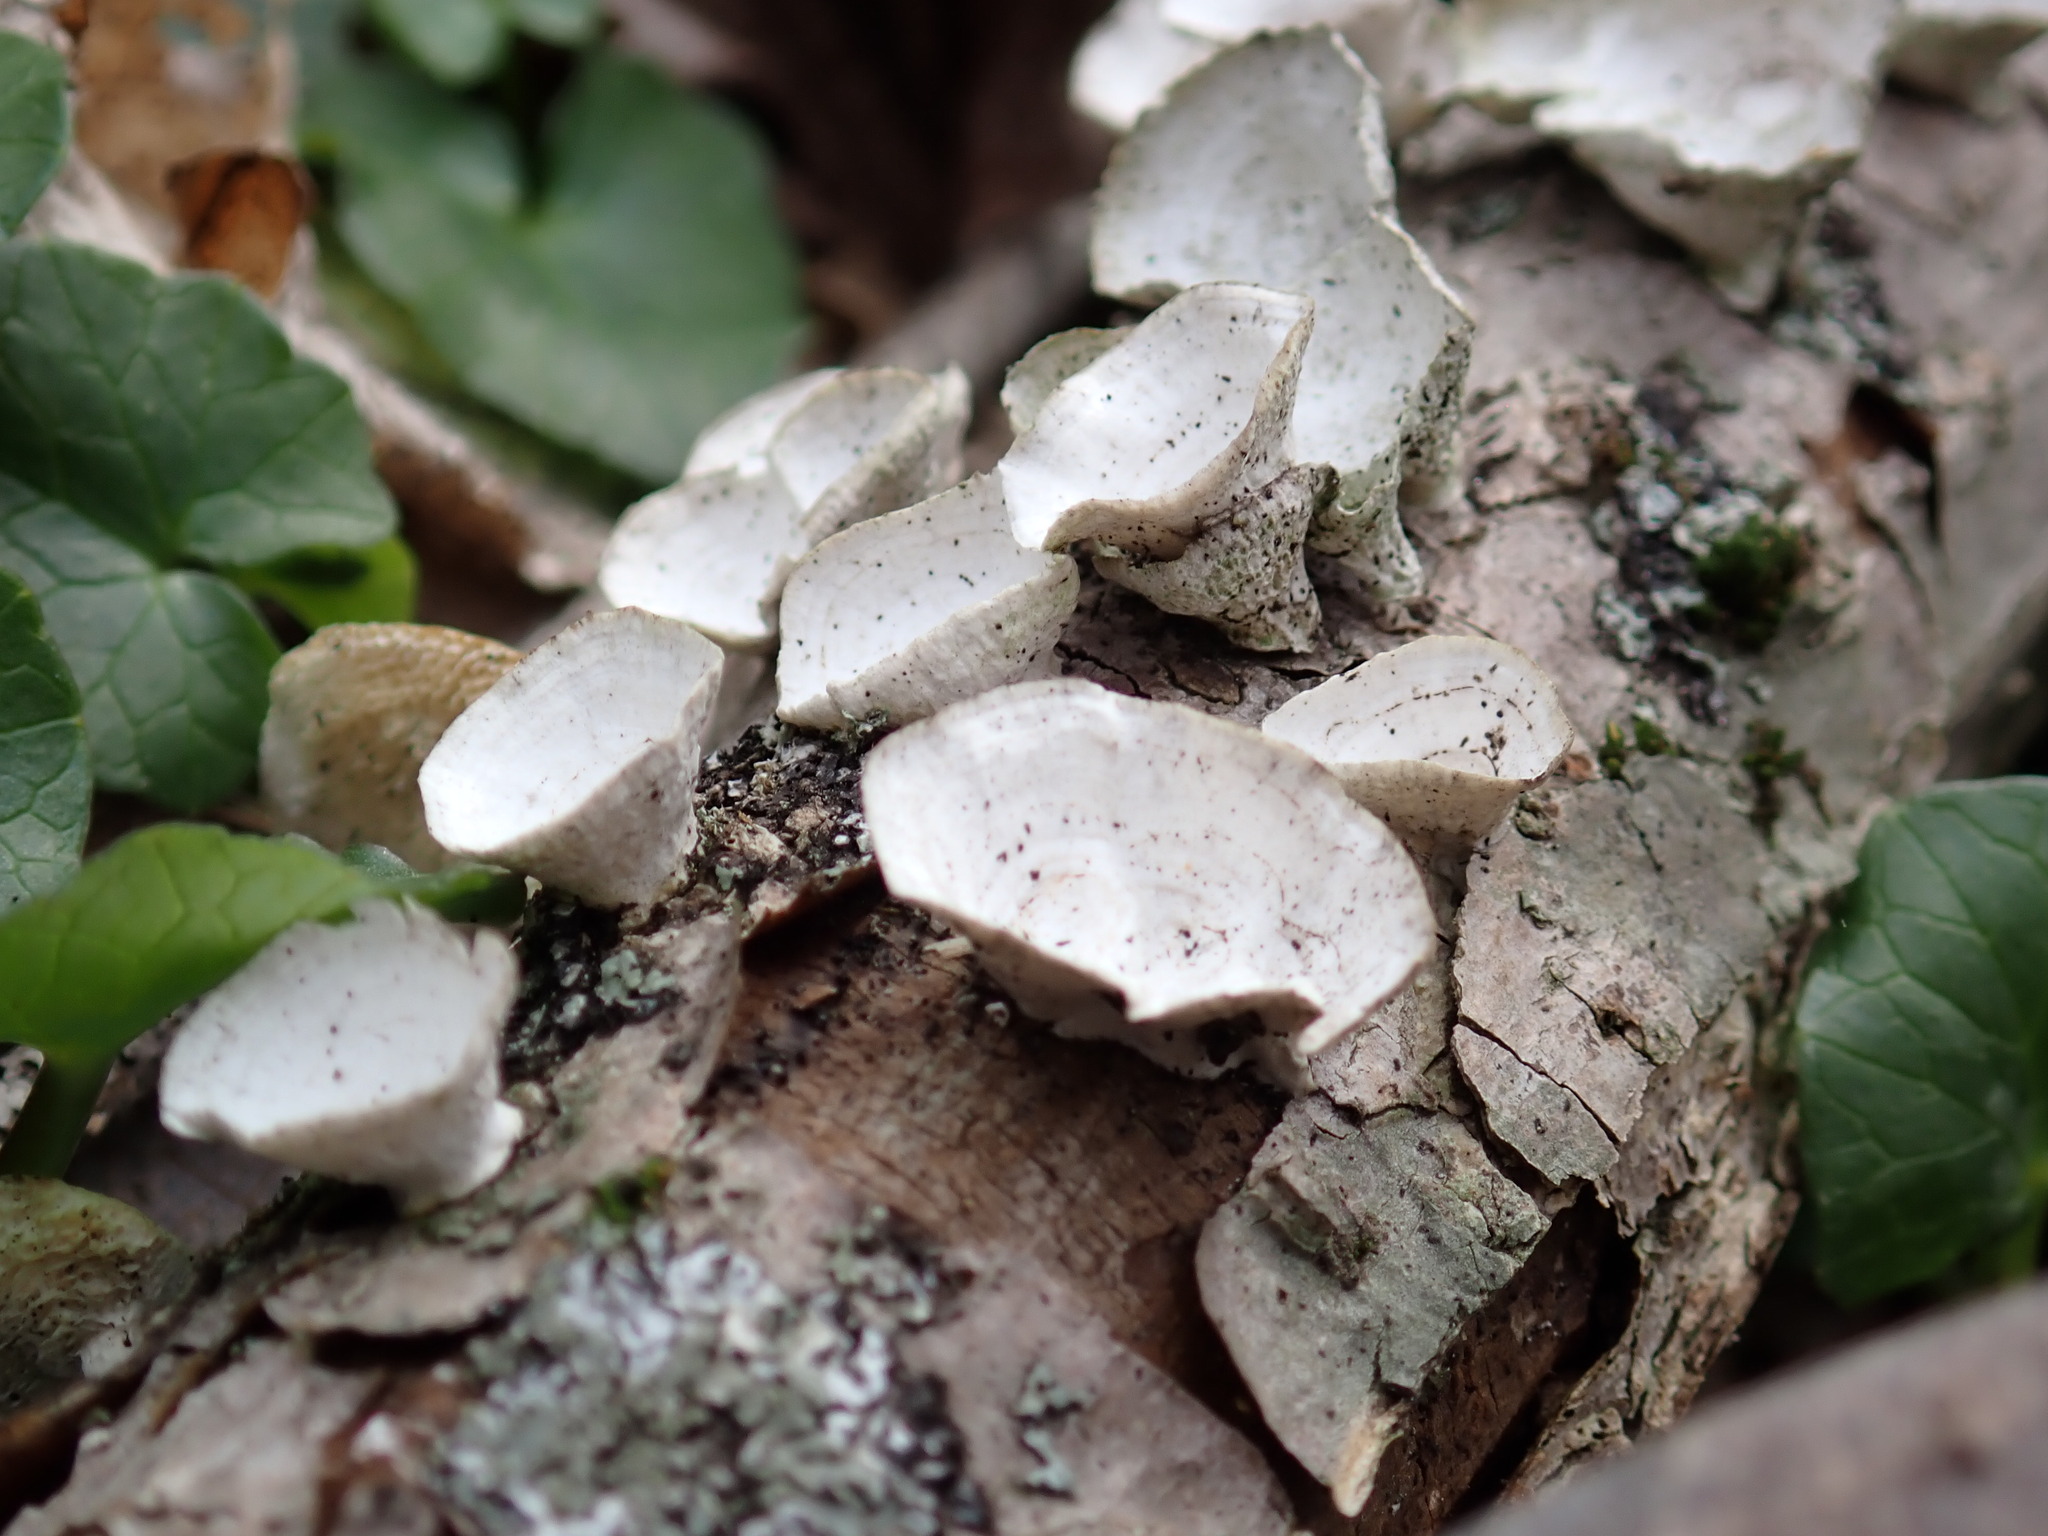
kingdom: Fungi
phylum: Basidiomycota
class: Agaricomycetes
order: Polyporales
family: Polyporaceae
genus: Poronidulus
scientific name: Poronidulus conchifer
